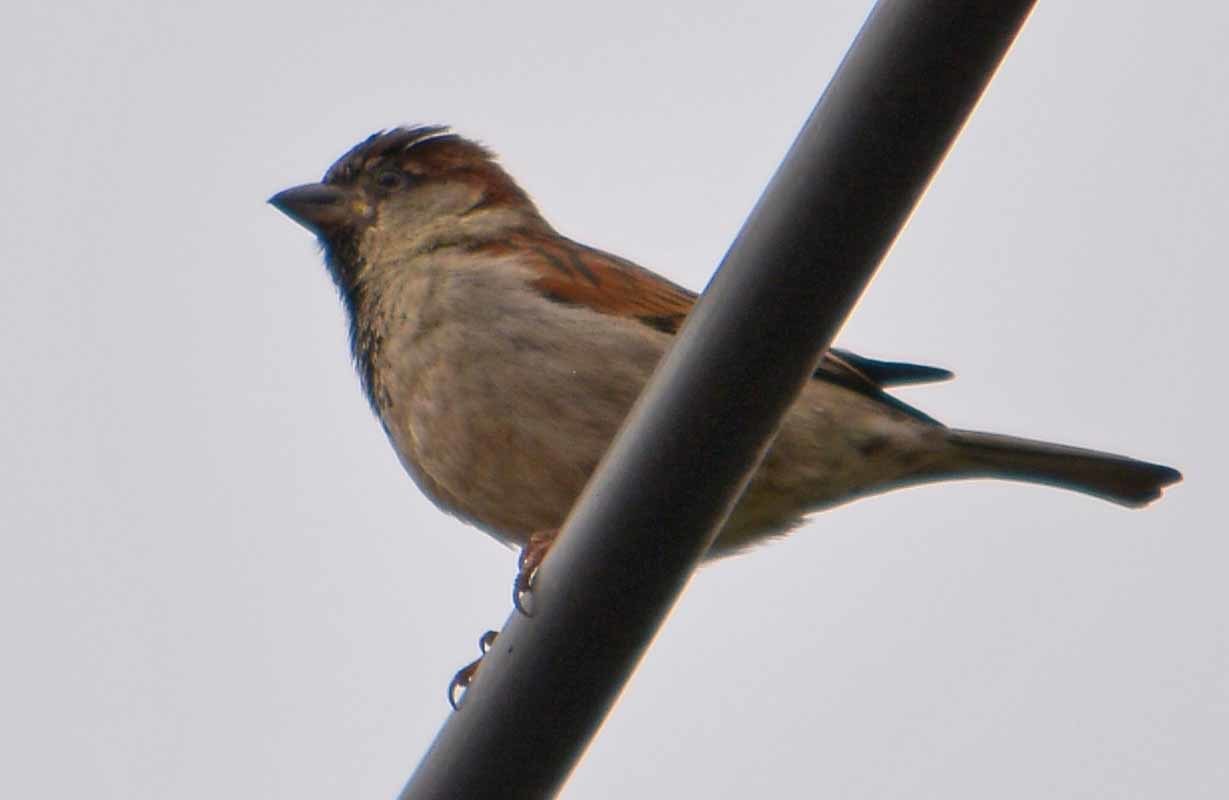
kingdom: Animalia
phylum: Chordata
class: Aves
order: Passeriformes
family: Passeridae
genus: Passer
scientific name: Passer domesticus
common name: House sparrow
